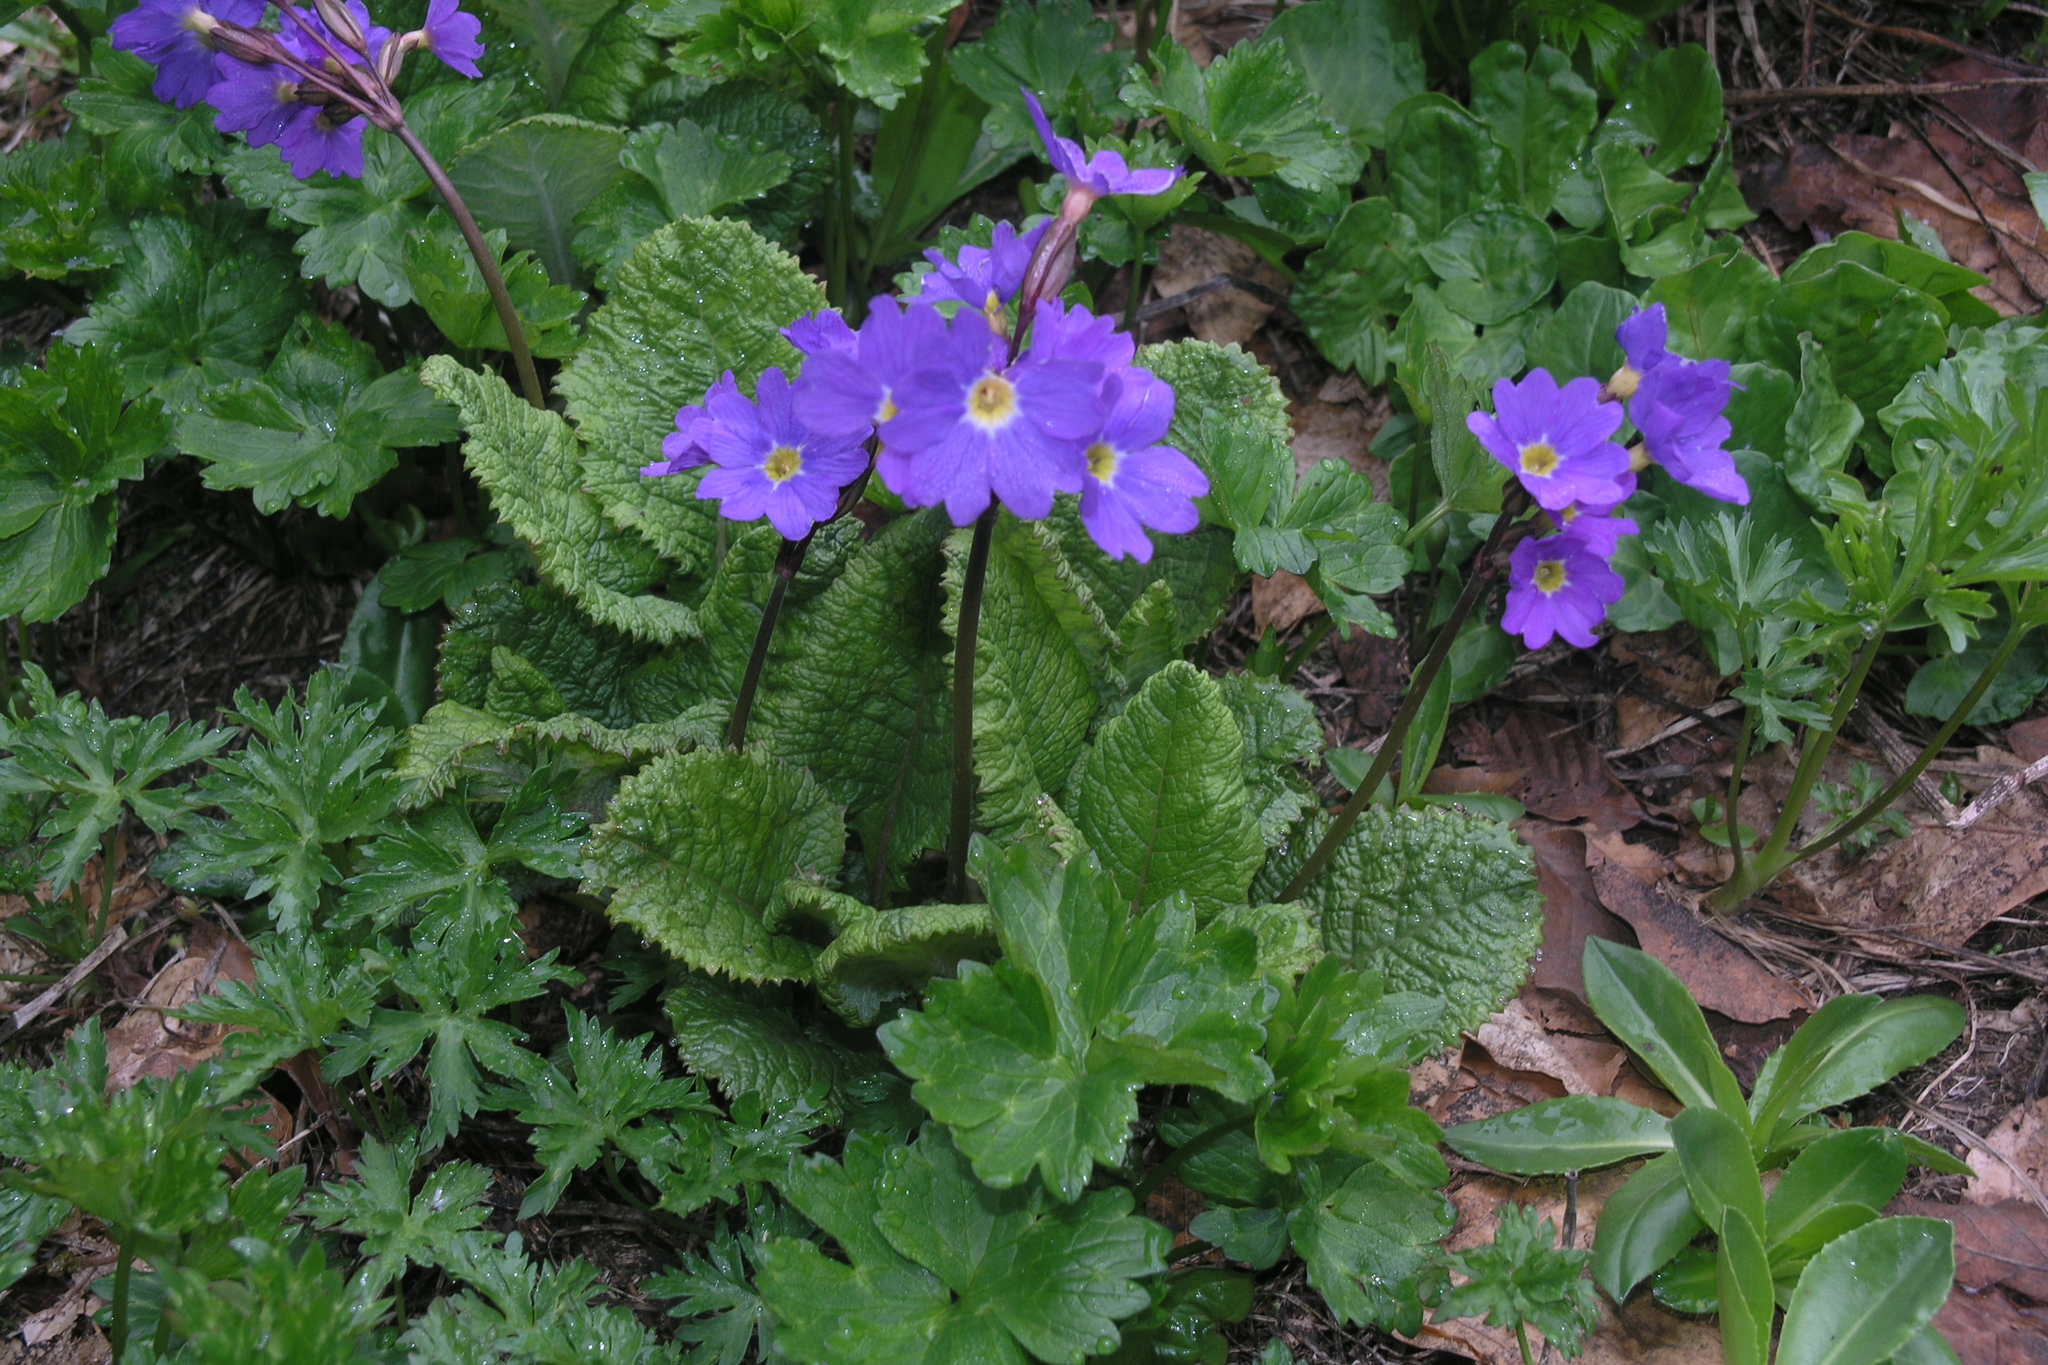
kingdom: Plantae
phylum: Tracheophyta
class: Magnoliopsida
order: Ericales
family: Primulaceae
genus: Primula
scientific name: Primula amoena
